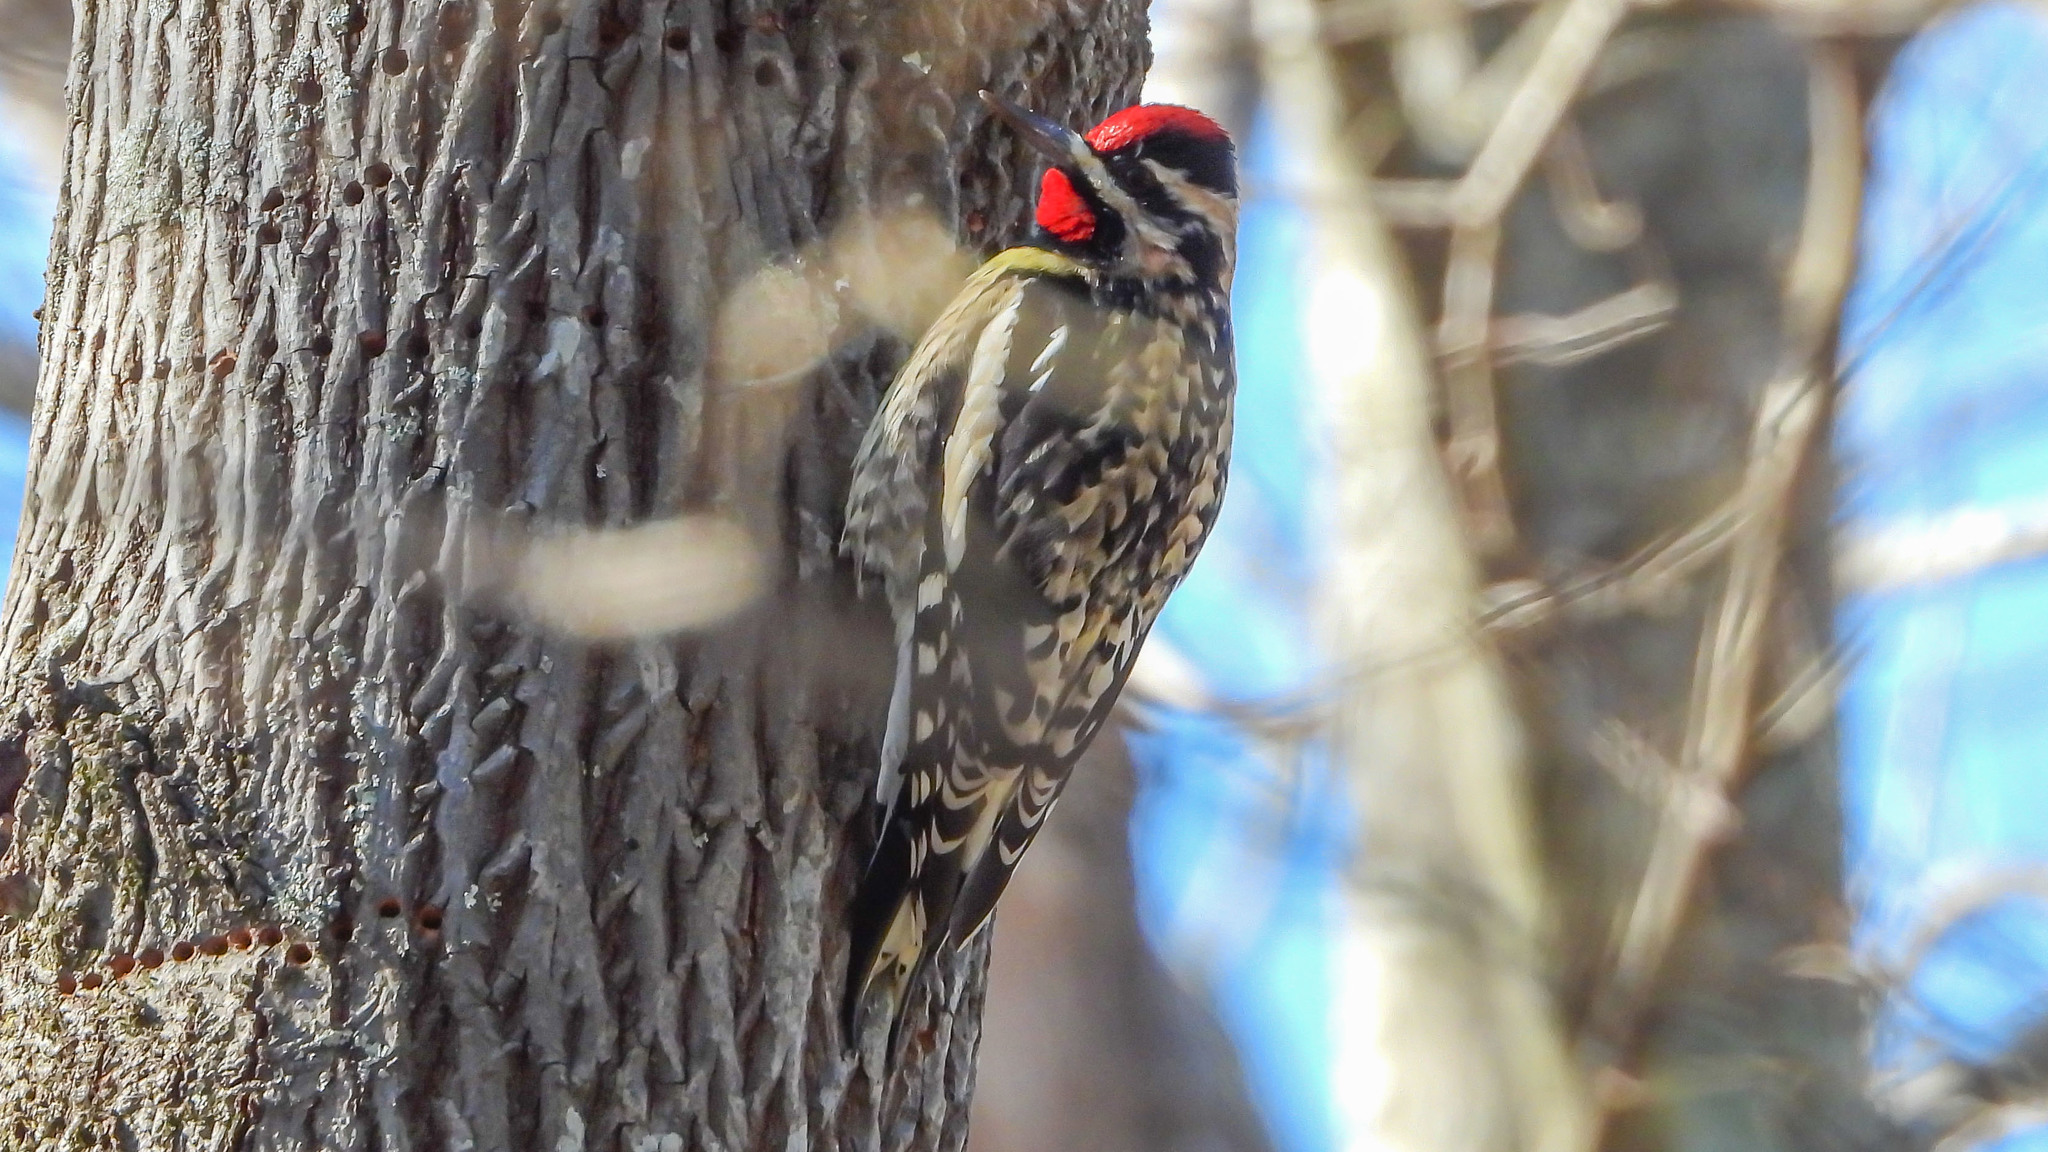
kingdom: Animalia
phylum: Chordata
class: Aves
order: Piciformes
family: Picidae
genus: Sphyrapicus
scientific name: Sphyrapicus varius
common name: Yellow-bellied sapsucker
